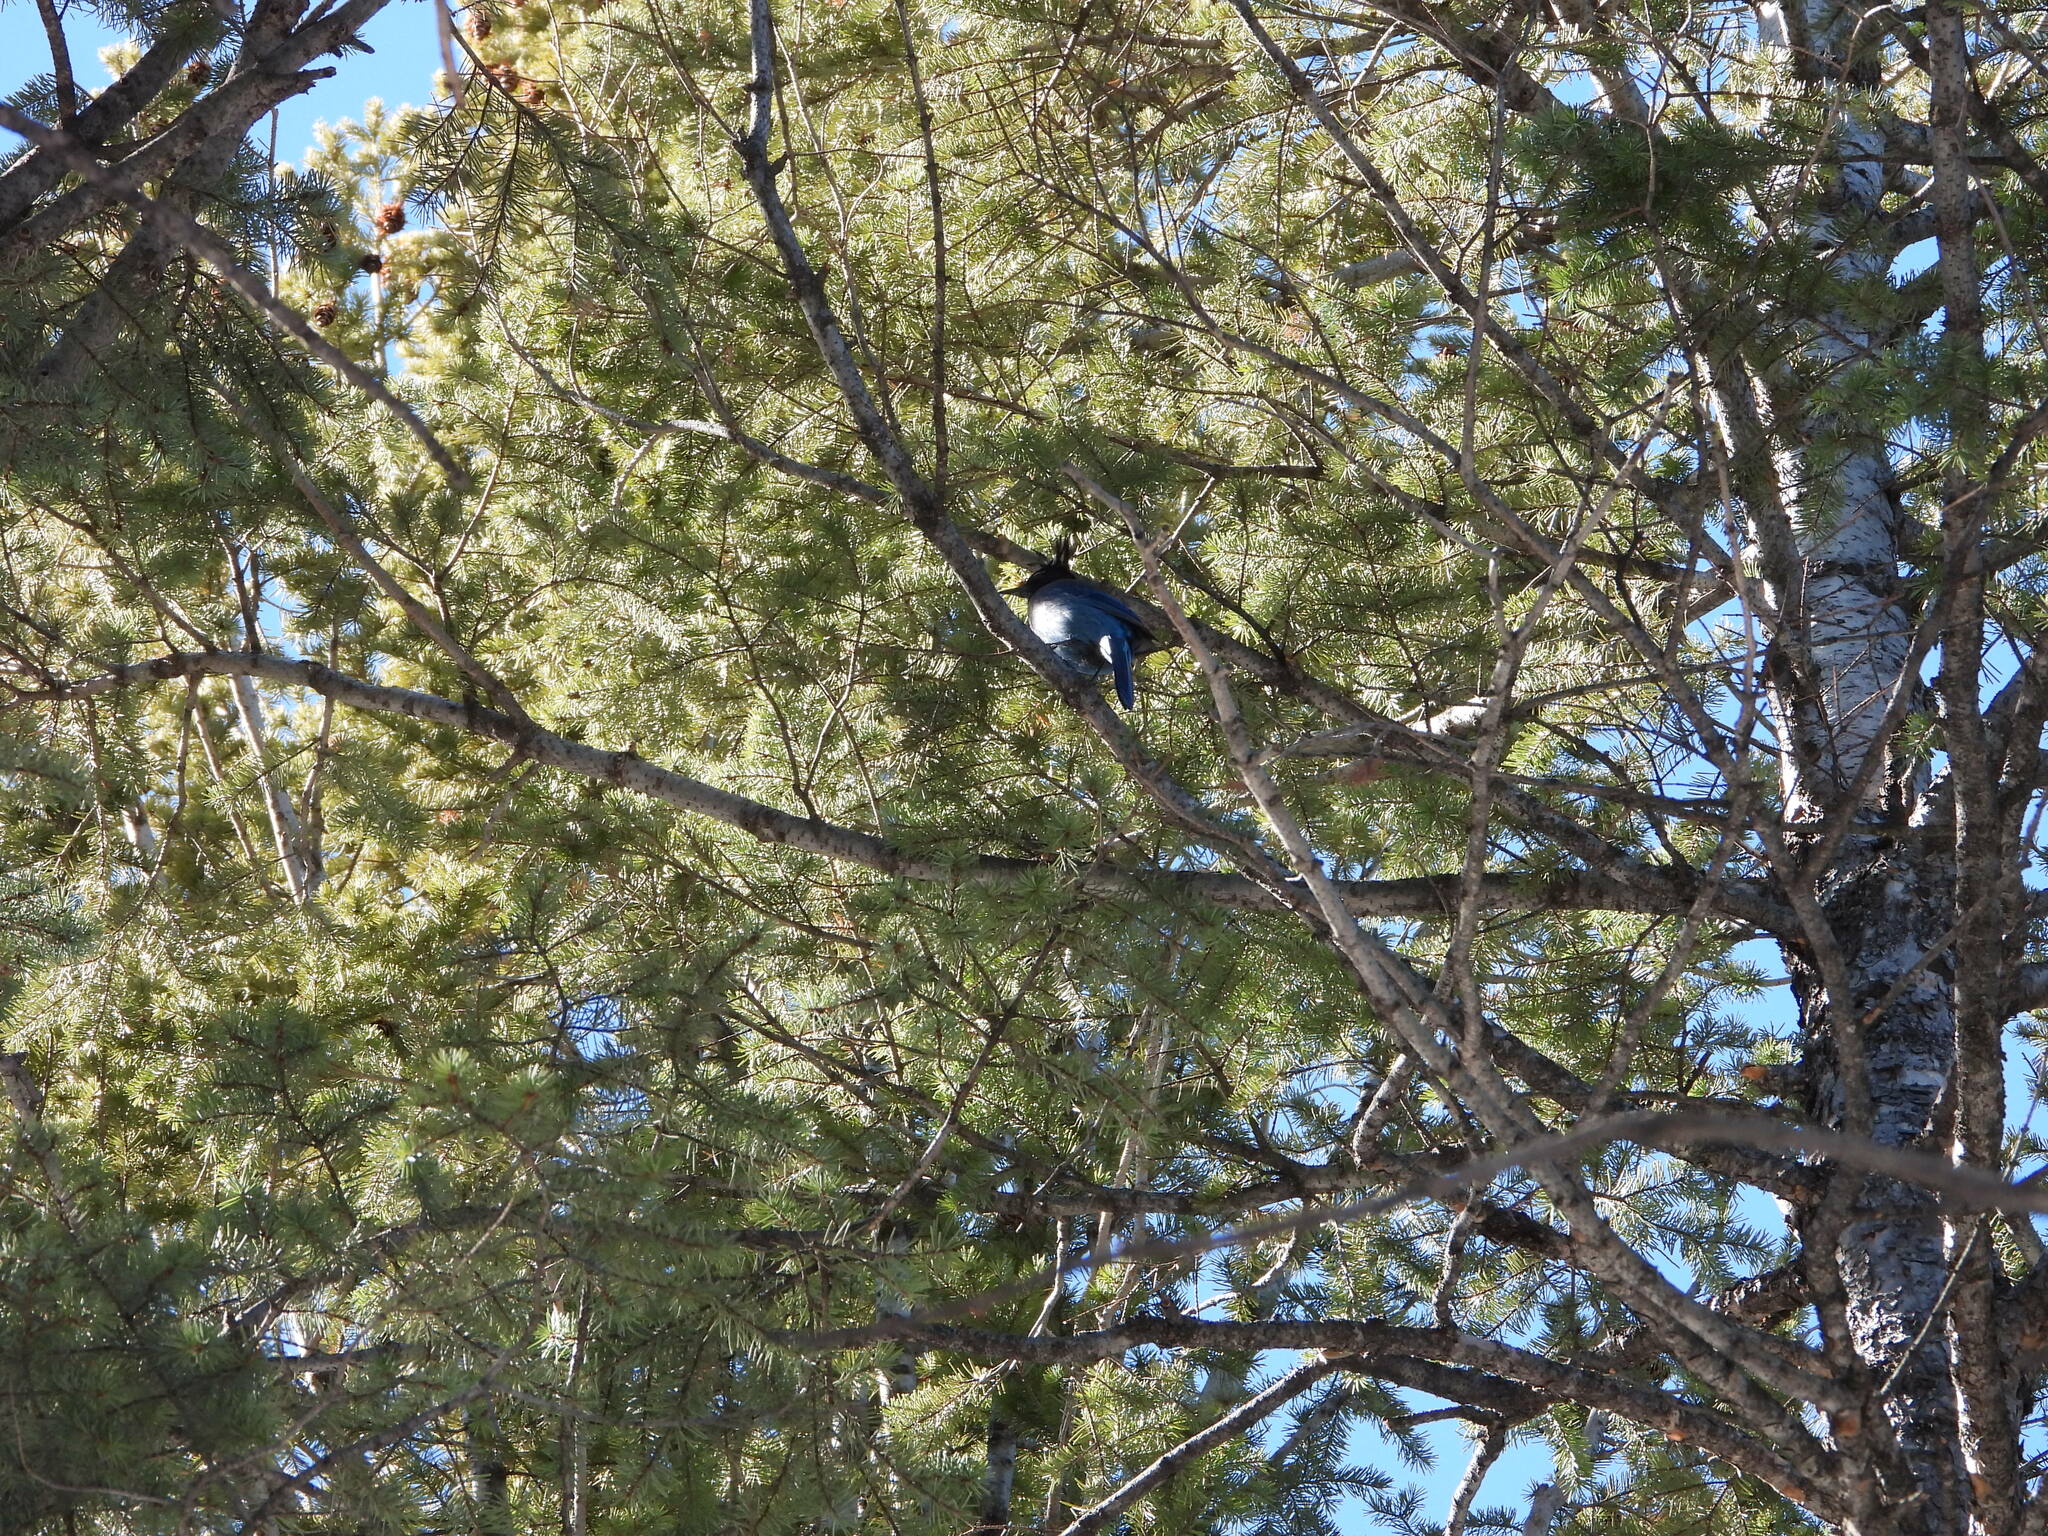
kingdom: Animalia
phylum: Chordata
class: Aves
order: Passeriformes
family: Corvidae
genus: Cyanocitta
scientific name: Cyanocitta stelleri
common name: Steller's jay
